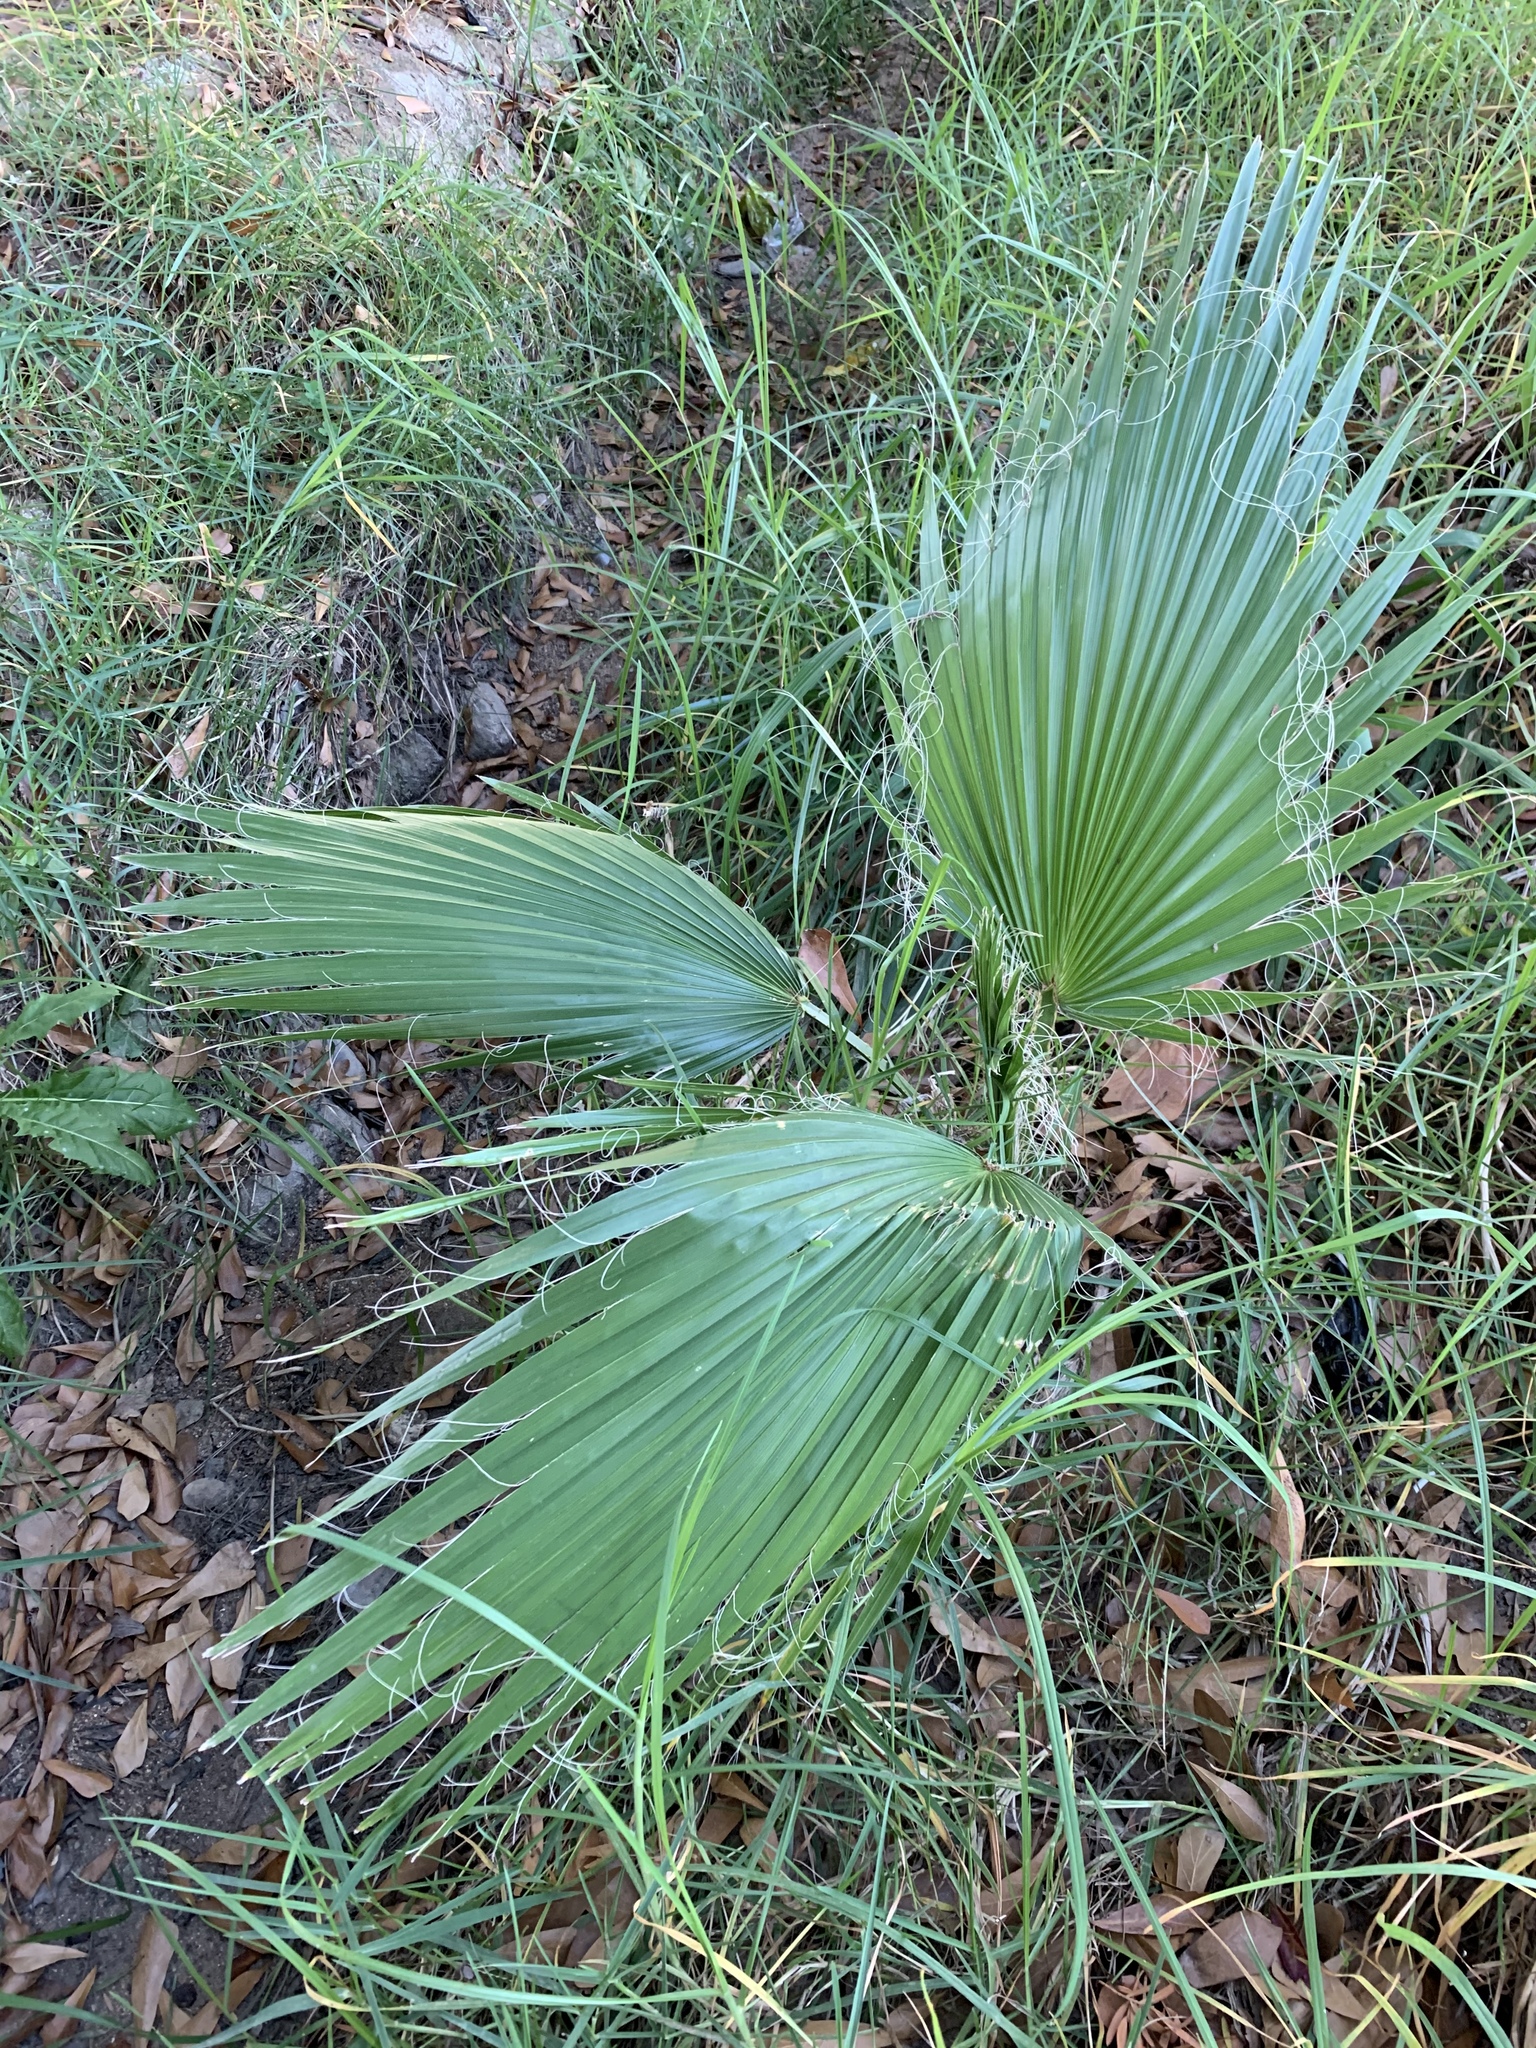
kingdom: Plantae
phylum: Tracheophyta
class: Liliopsida
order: Arecales
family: Arecaceae
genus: Washingtonia
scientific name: Washingtonia robusta
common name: Mexican fan palm
